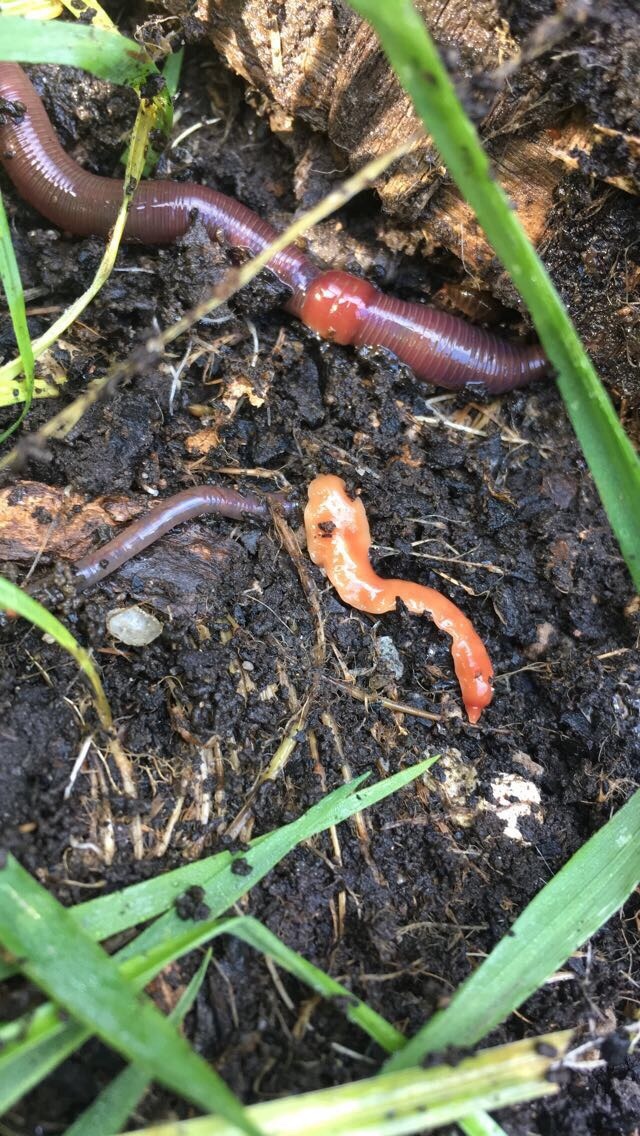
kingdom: Animalia
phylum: Platyhelminthes
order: Tricladida
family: Geoplanidae
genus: Australoplana
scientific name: Australoplana sanguinea
